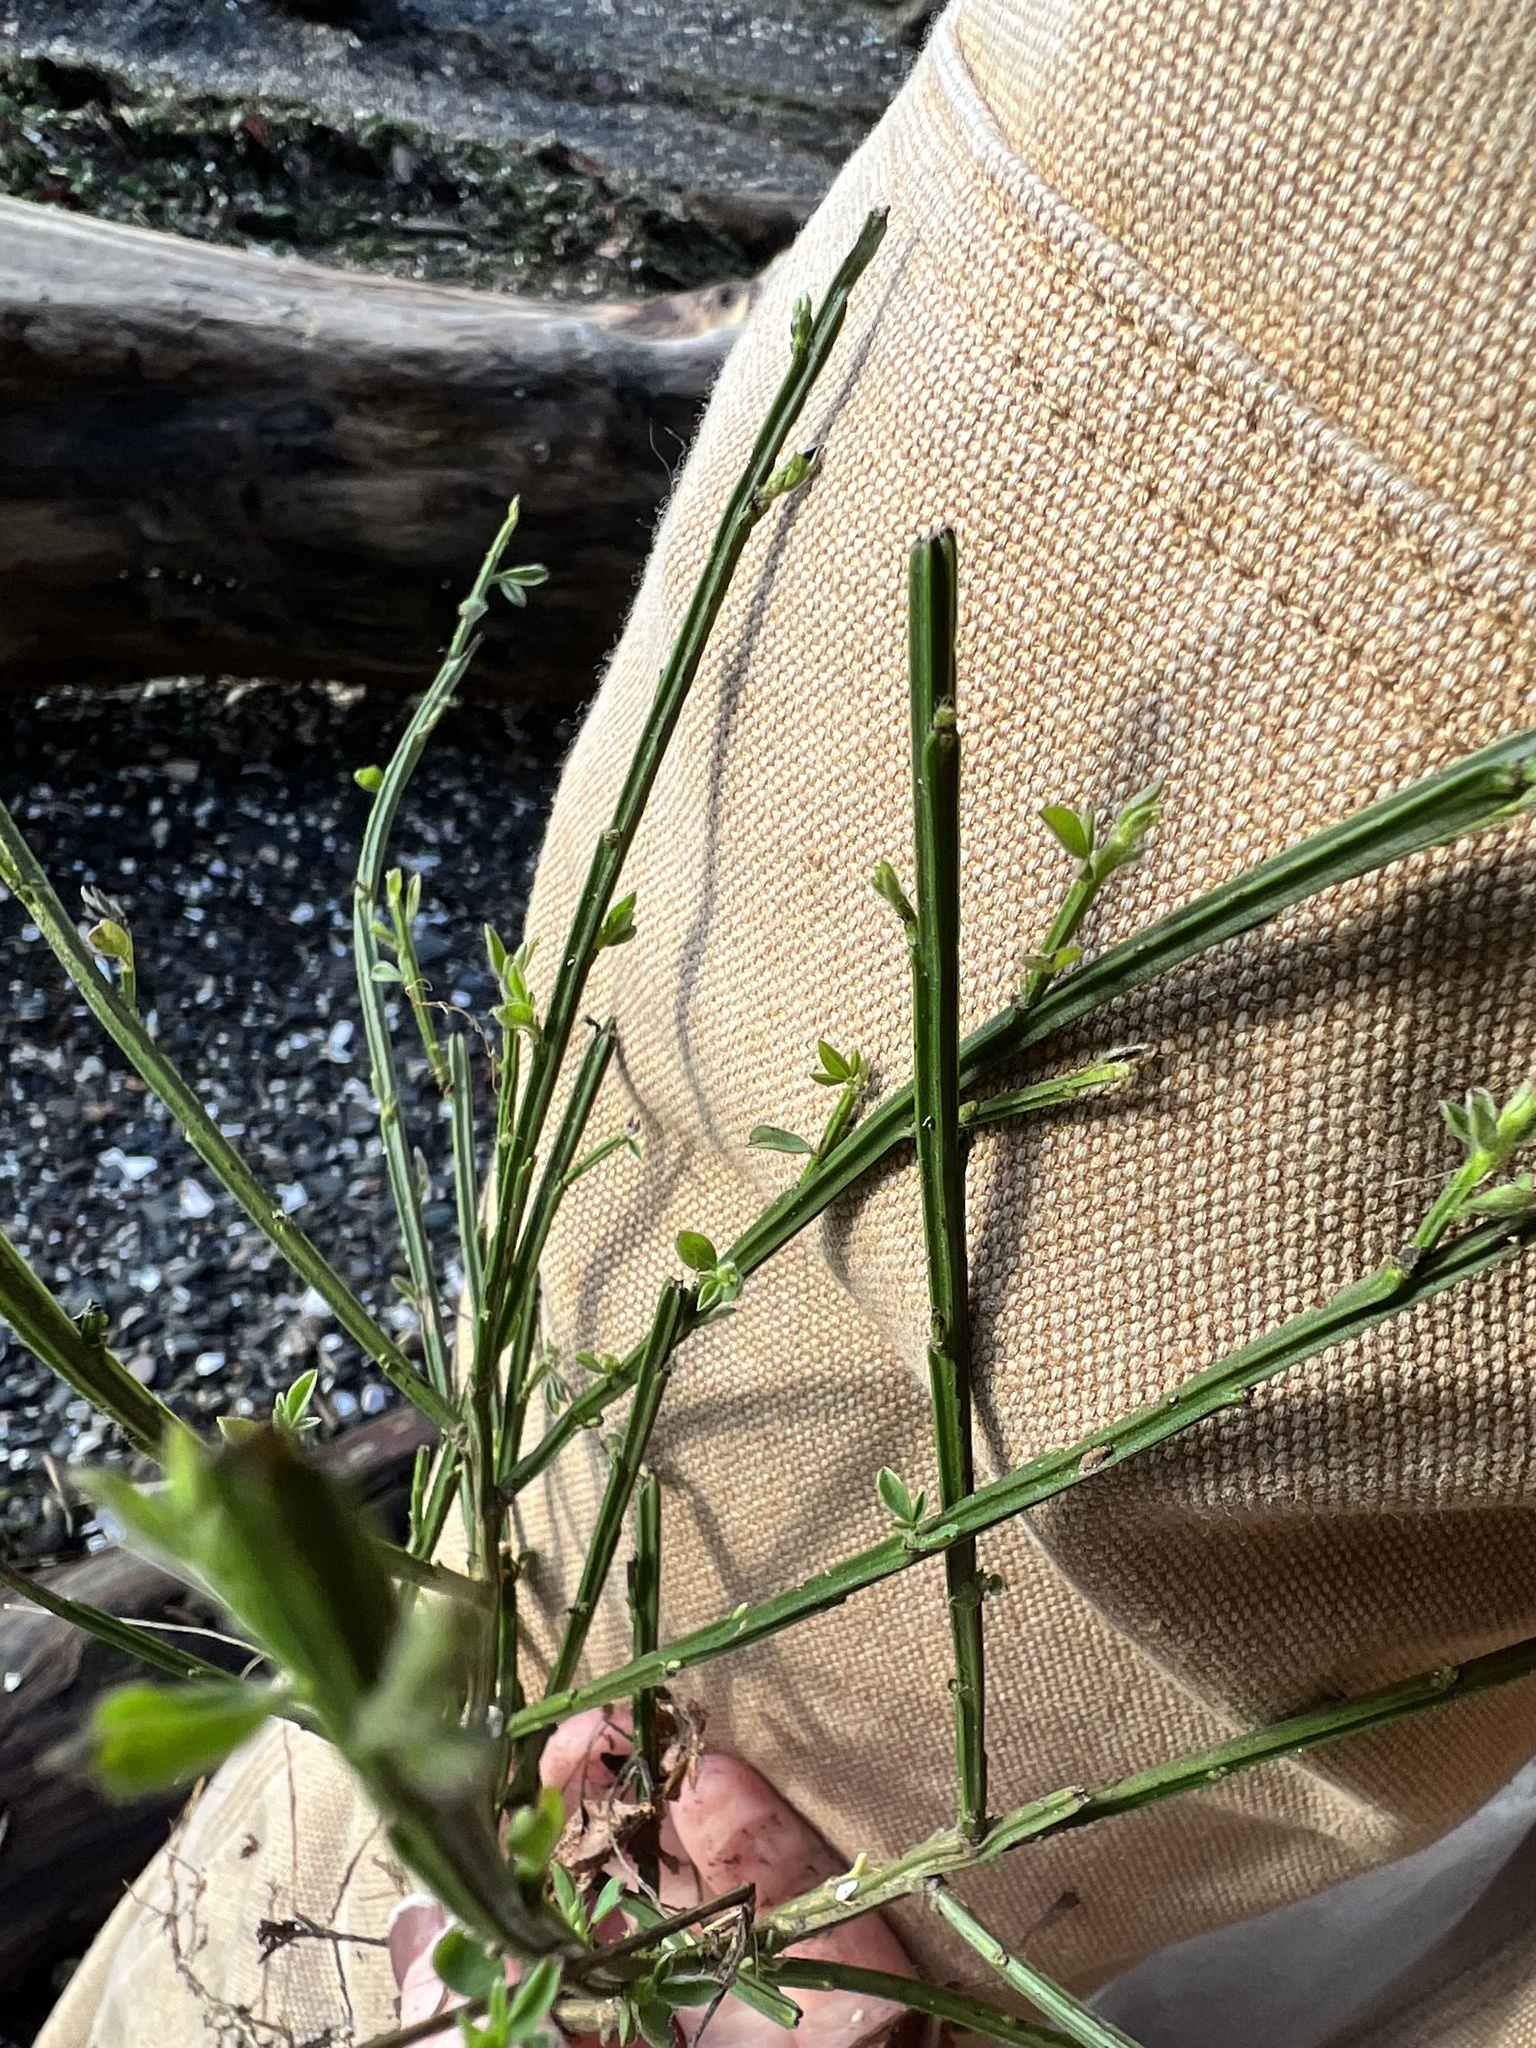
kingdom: Plantae
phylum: Tracheophyta
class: Magnoliopsida
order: Fabales
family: Fabaceae
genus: Cytisus
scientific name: Cytisus scoparius
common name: Scotch broom
